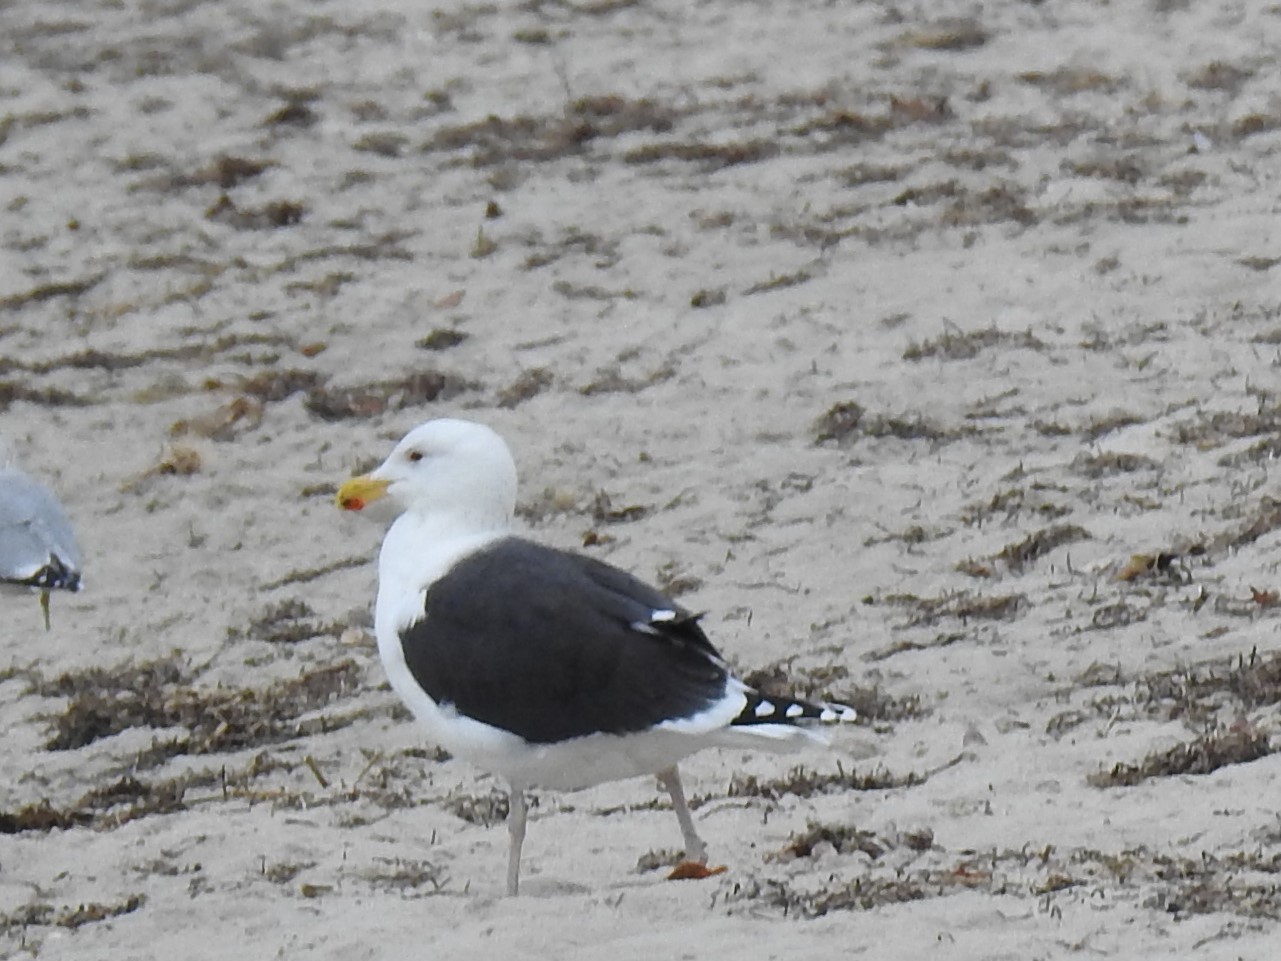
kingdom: Animalia
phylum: Chordata
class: Aves
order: Charadriiformes
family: Laridae
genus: Larus
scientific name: Larus marinus
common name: Great black-backed gull
